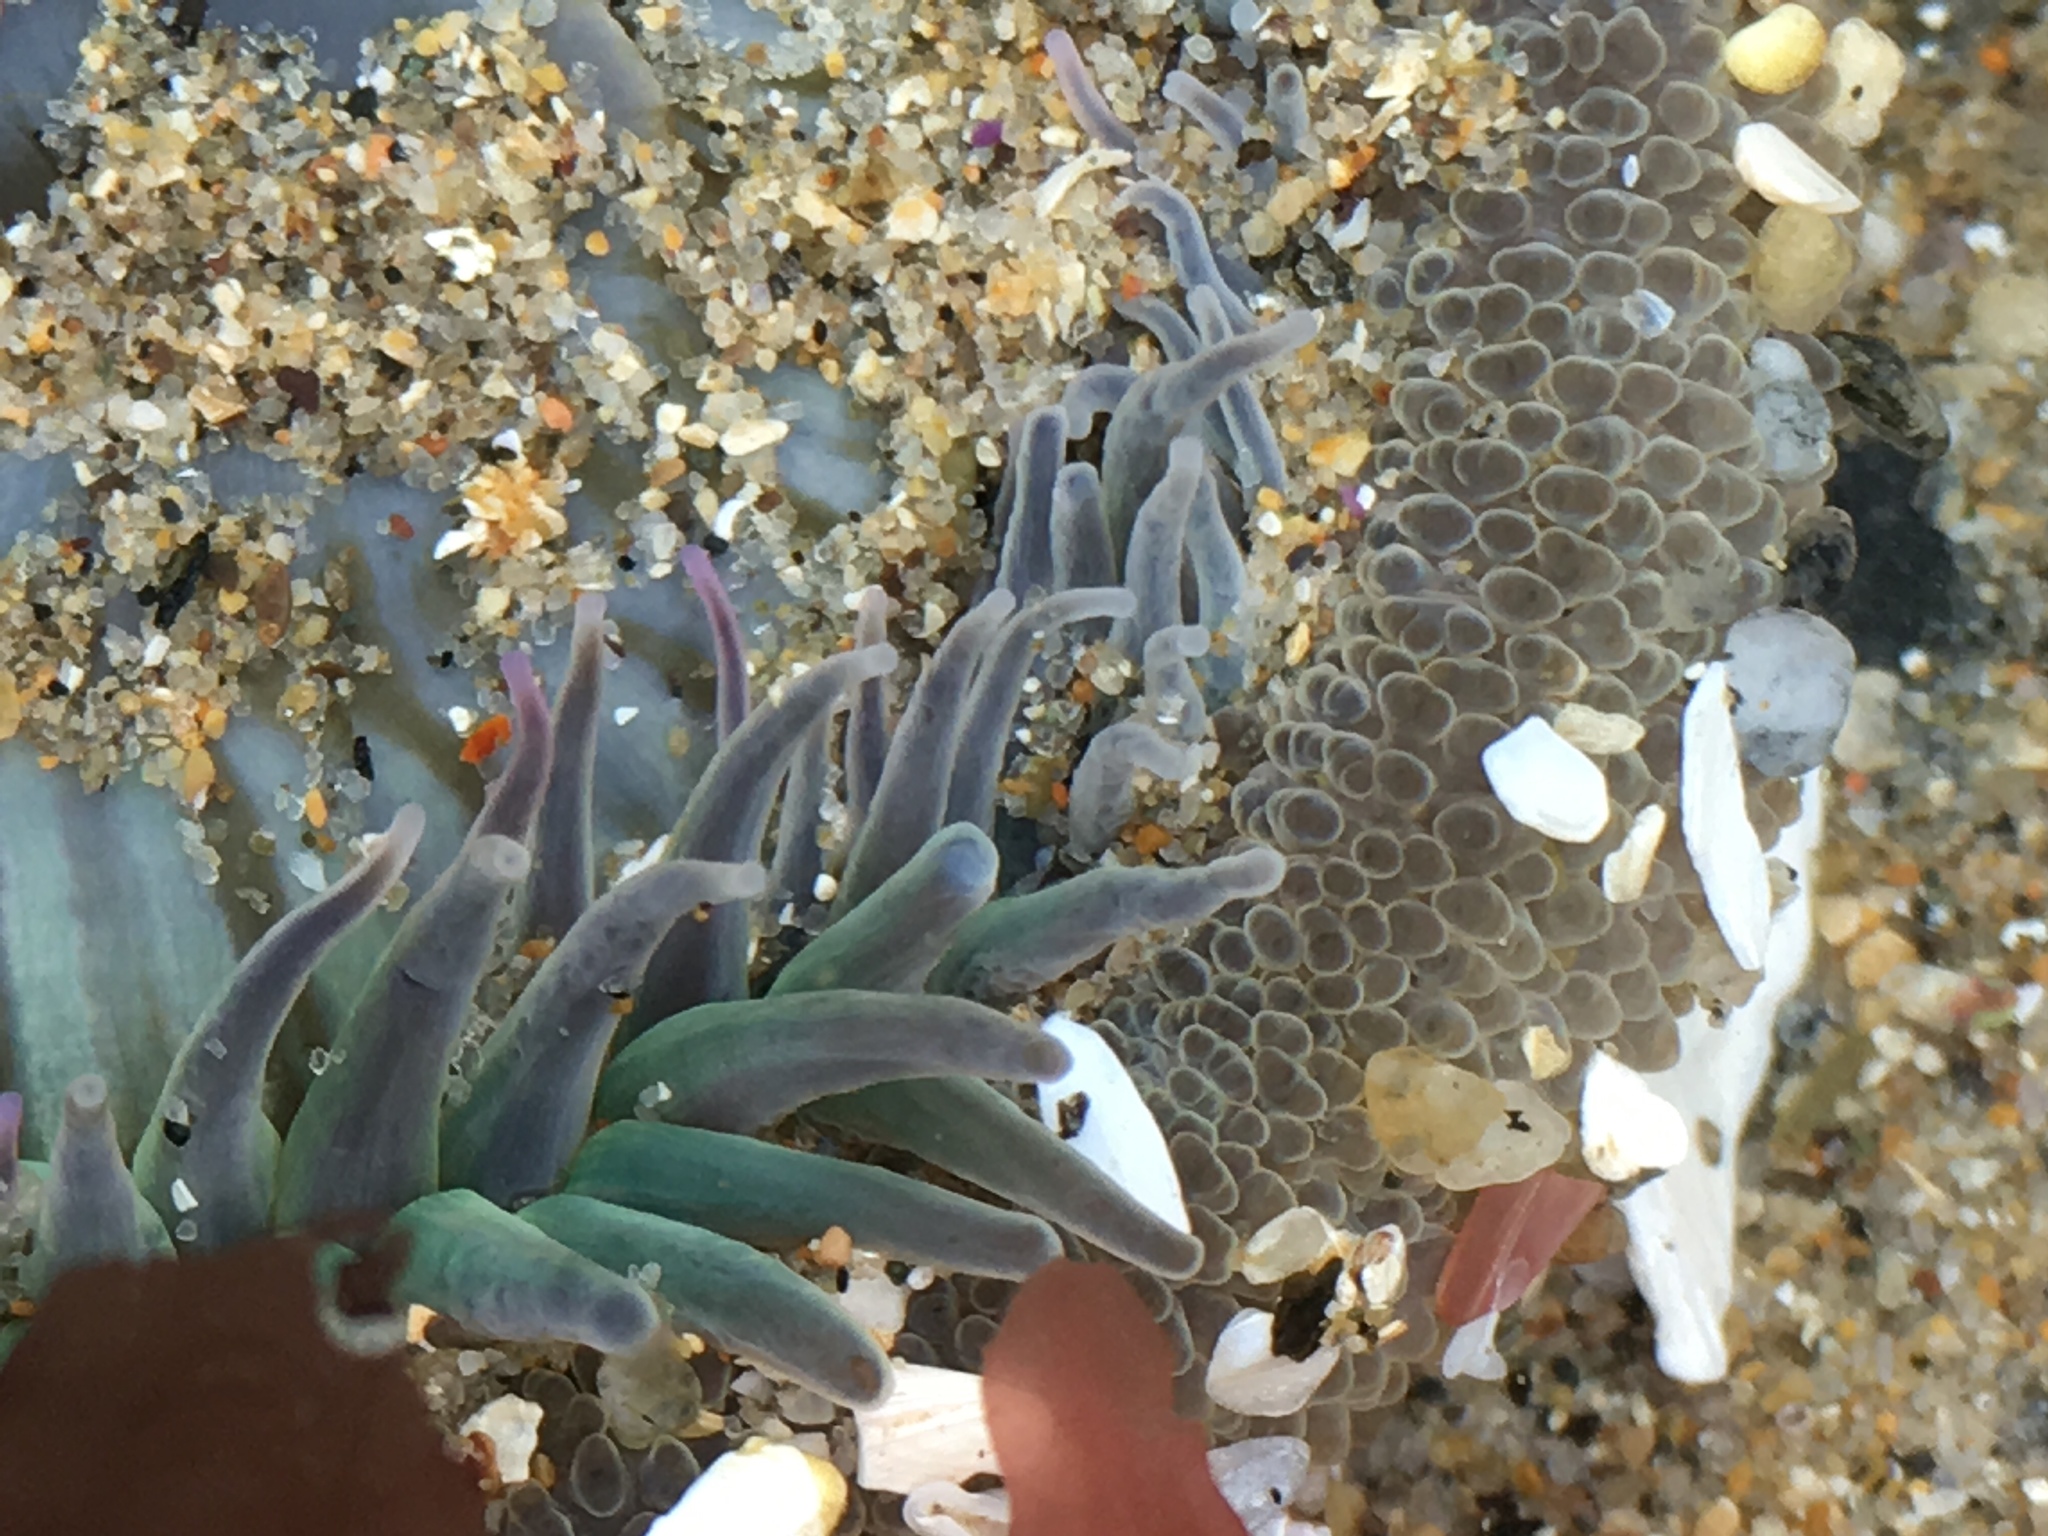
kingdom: Animalia
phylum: Cnidaria
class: Anthozoa
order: Actiniaria
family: Actiniidae
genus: Anthopleura
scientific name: Anthopleura sola
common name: Sun anemone
